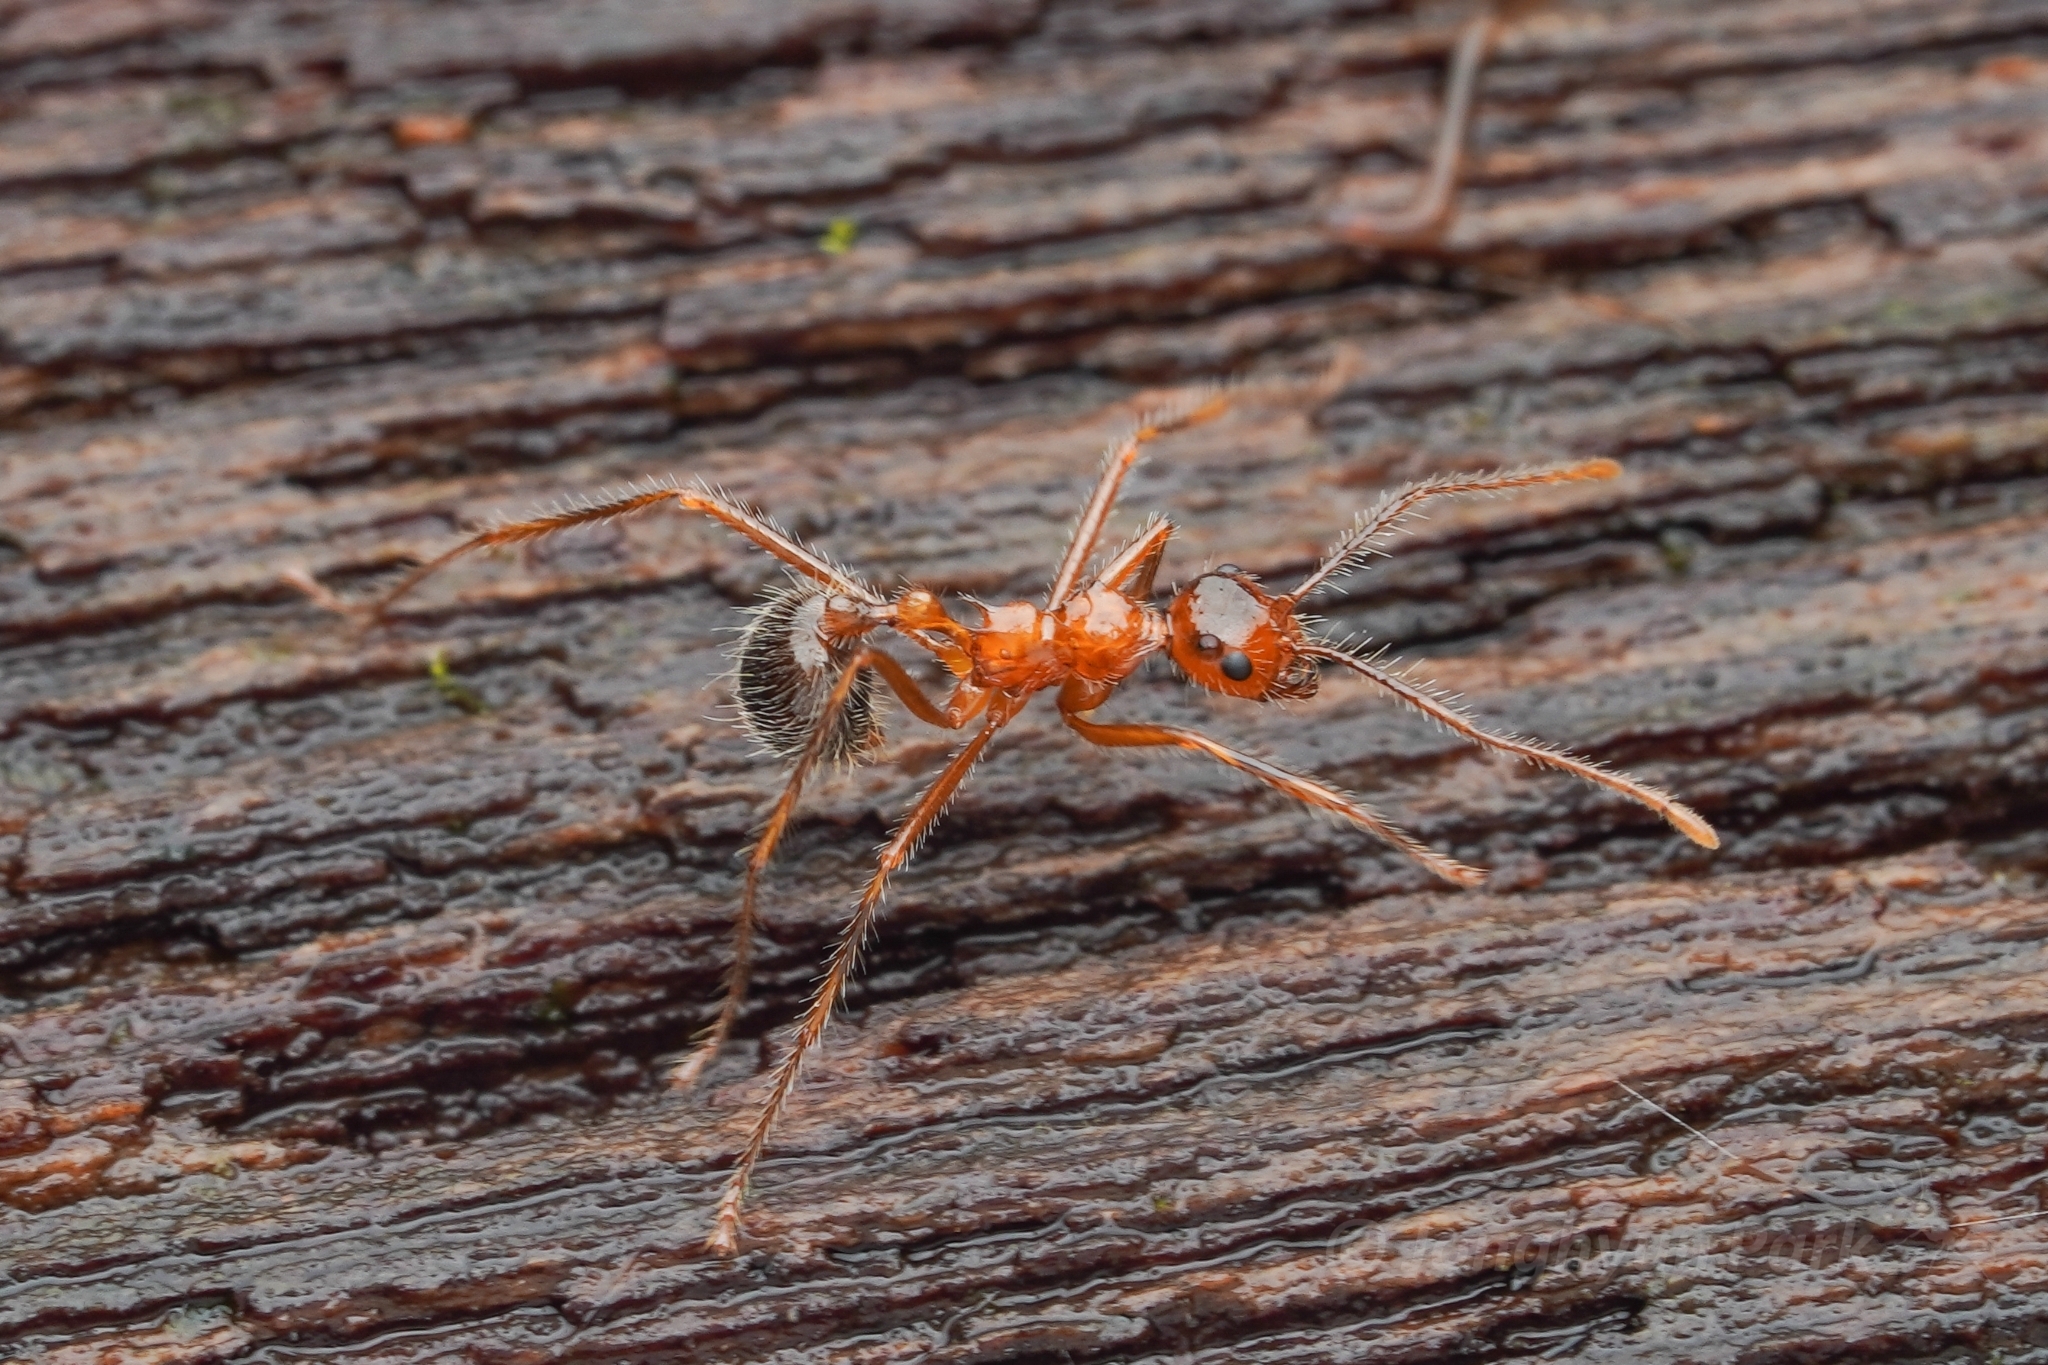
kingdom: Animalia
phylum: Arthropoda
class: Insecta
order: Hymenoptera
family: Formicidae
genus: Myrmicaria
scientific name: Myrmicaria melanogaster
